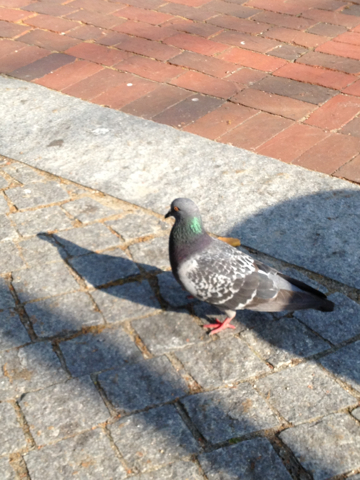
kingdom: Animalia
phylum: Chordata
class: Aves
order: Columbiformes
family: Columbidae
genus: Columba
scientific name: Columba livia
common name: Rock pigeon
